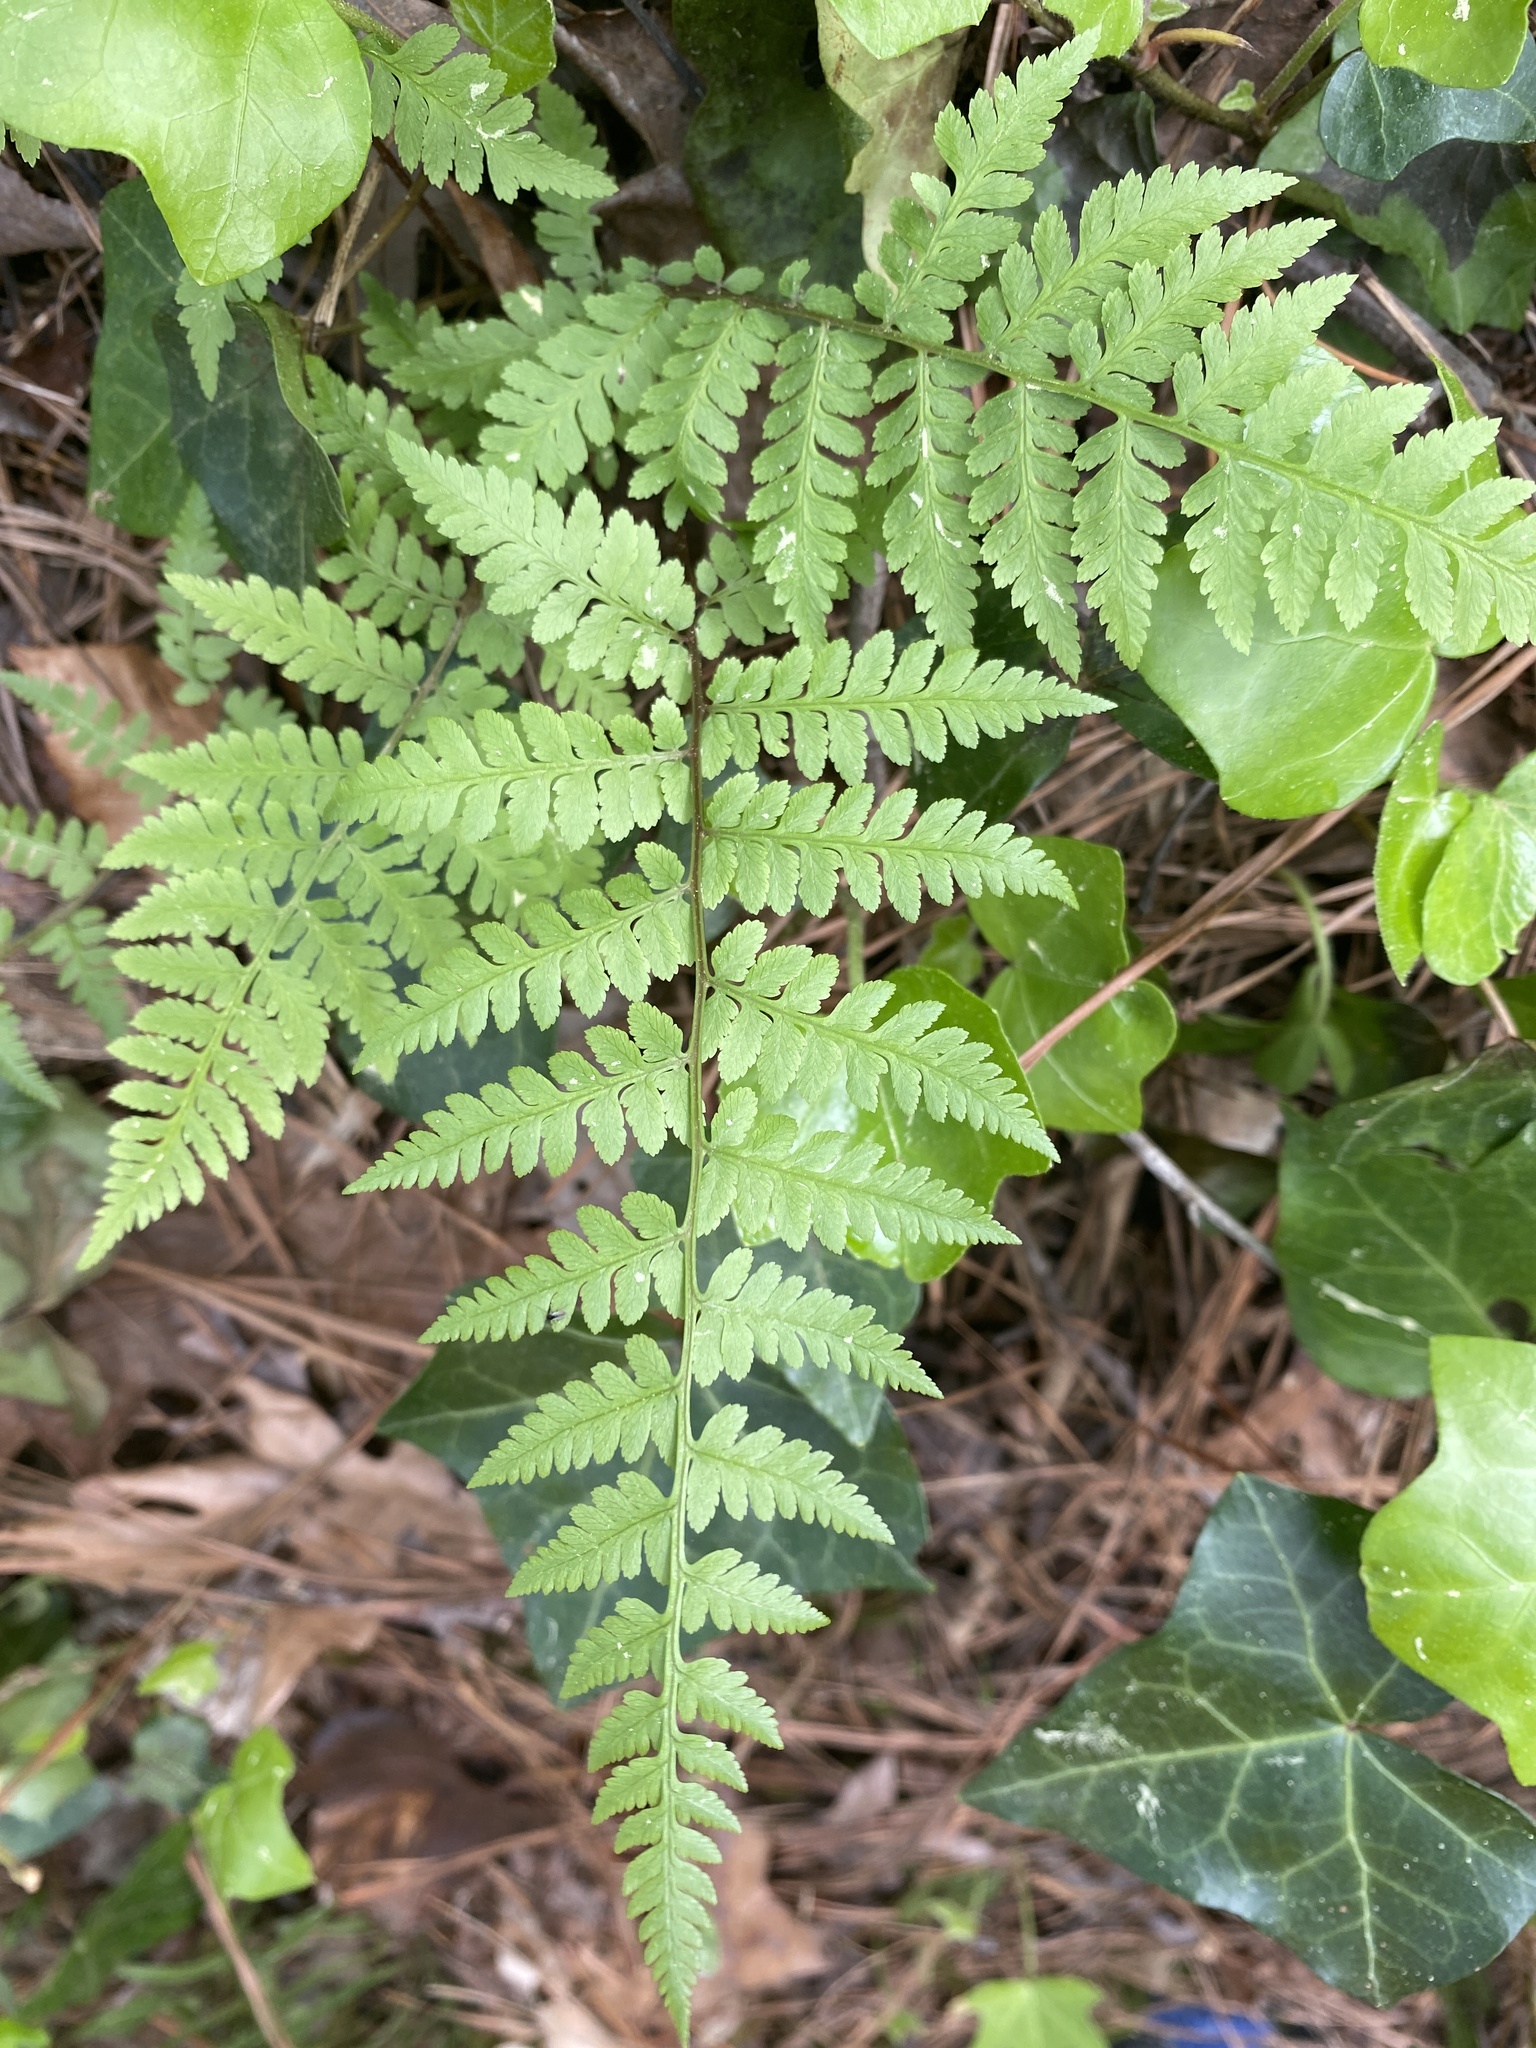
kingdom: Plantae
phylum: Tracheophyta
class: Polypodiopsida
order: Polypodiales
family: Athyriaceae
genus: Athyrium
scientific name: Athyrium asplenioides
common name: Southern lady fern
